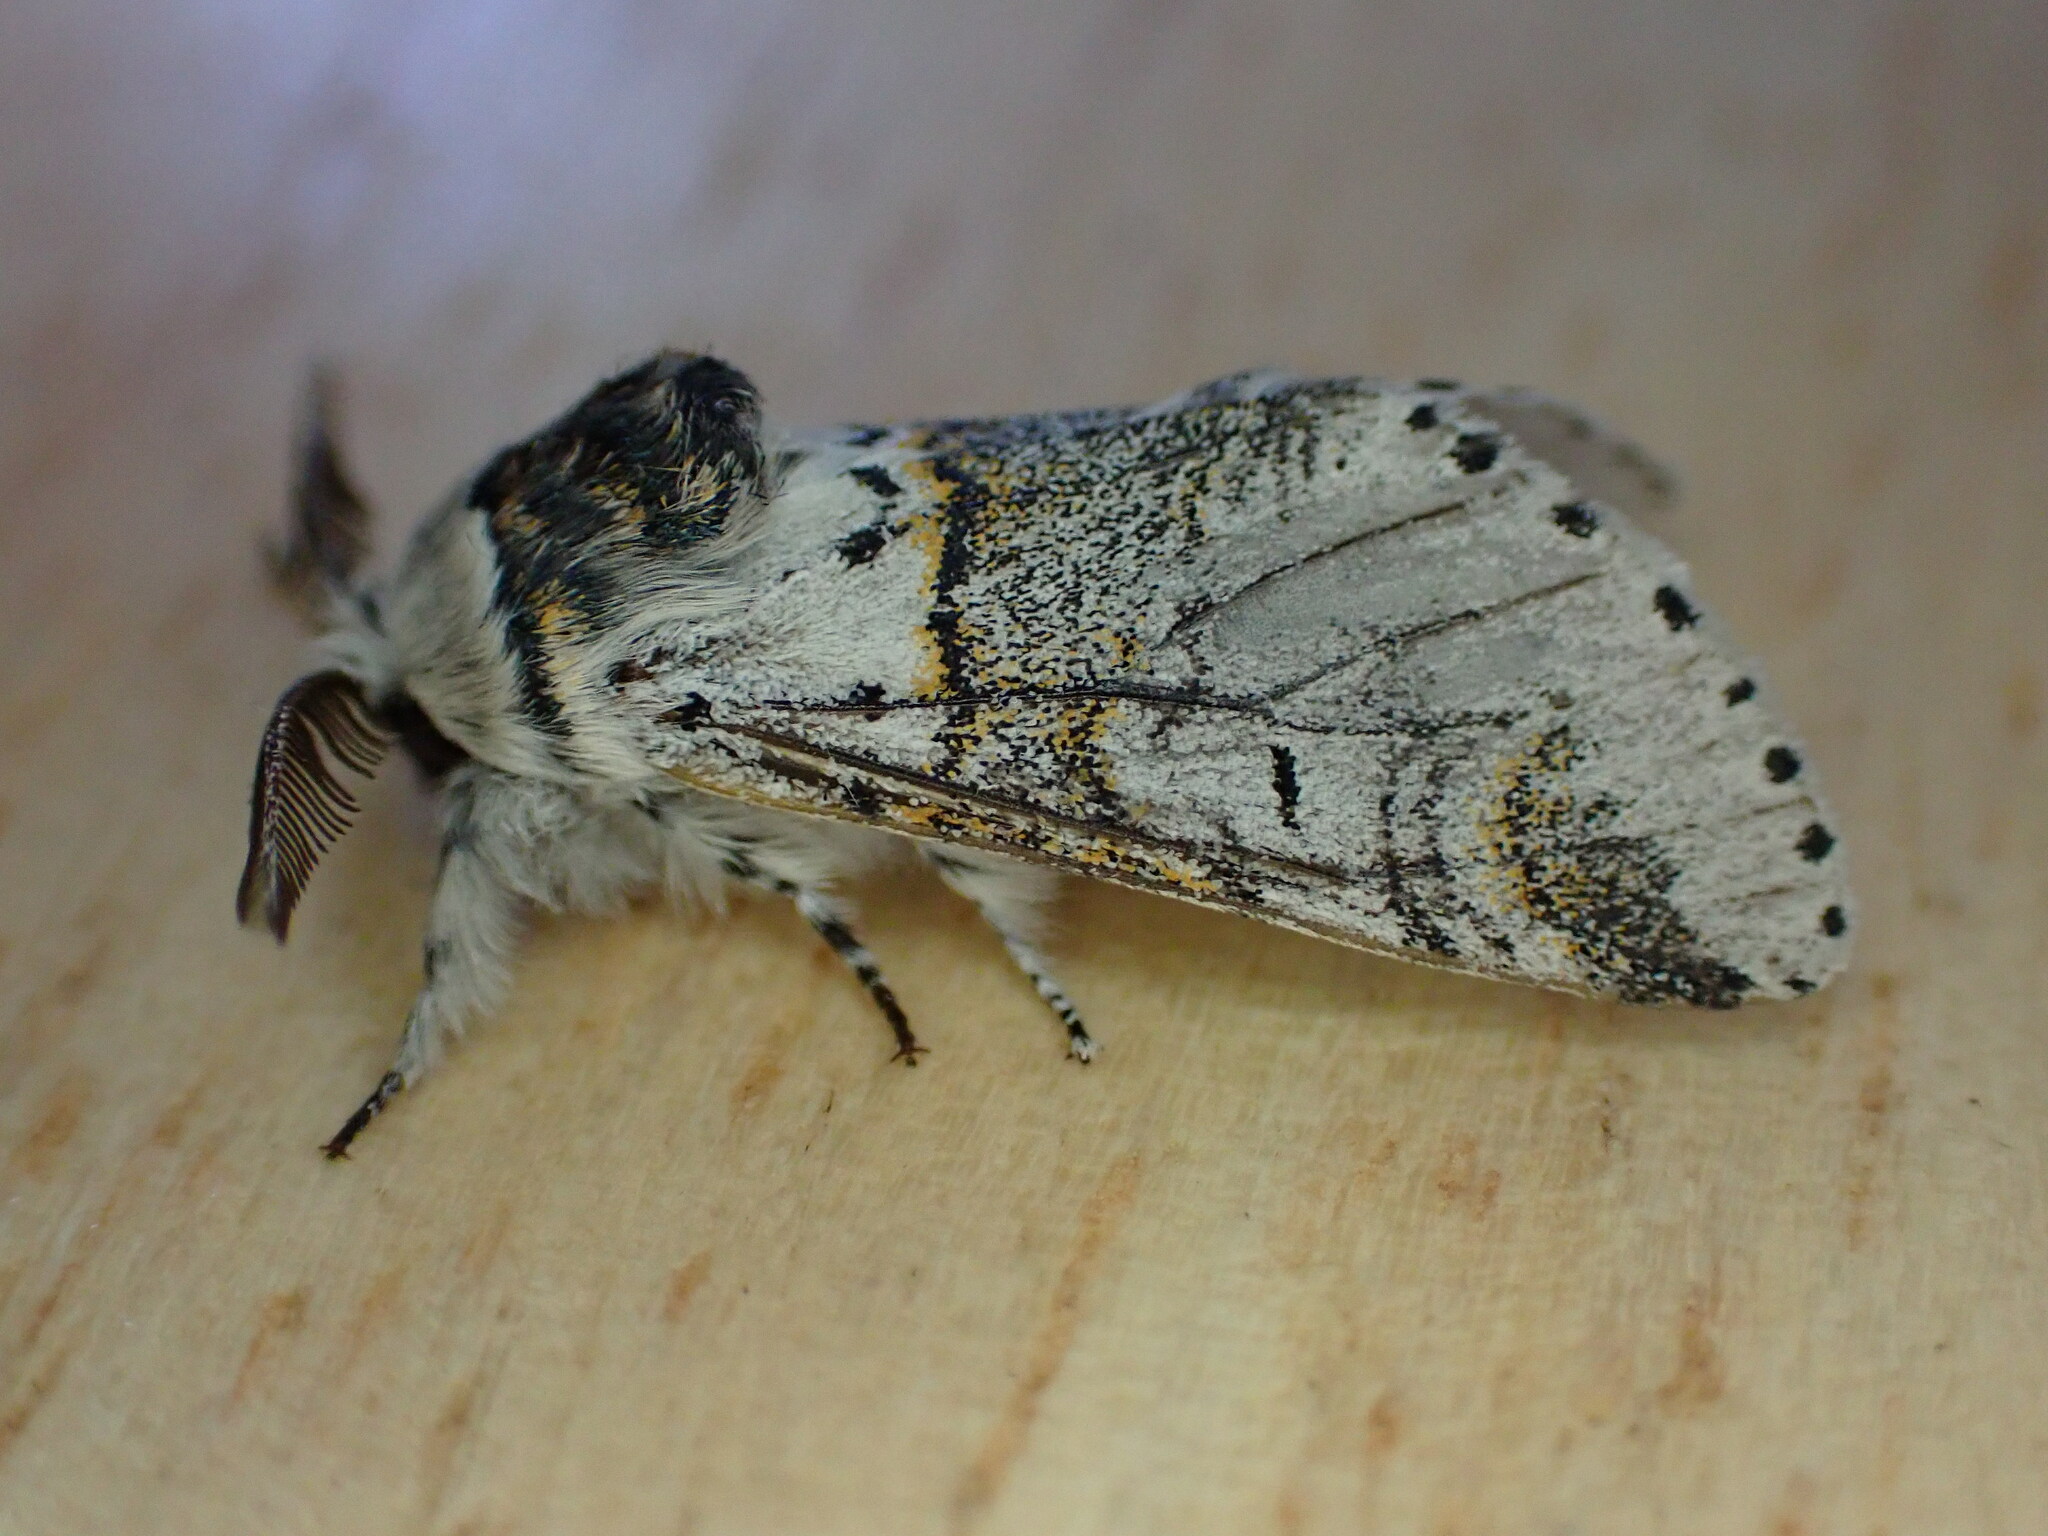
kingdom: Animalia
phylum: Arthropoda
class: Insecta
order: Lepidoptera
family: Notodontidae
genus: Furcula
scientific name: Furcula furcula
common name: Sallow kitten
